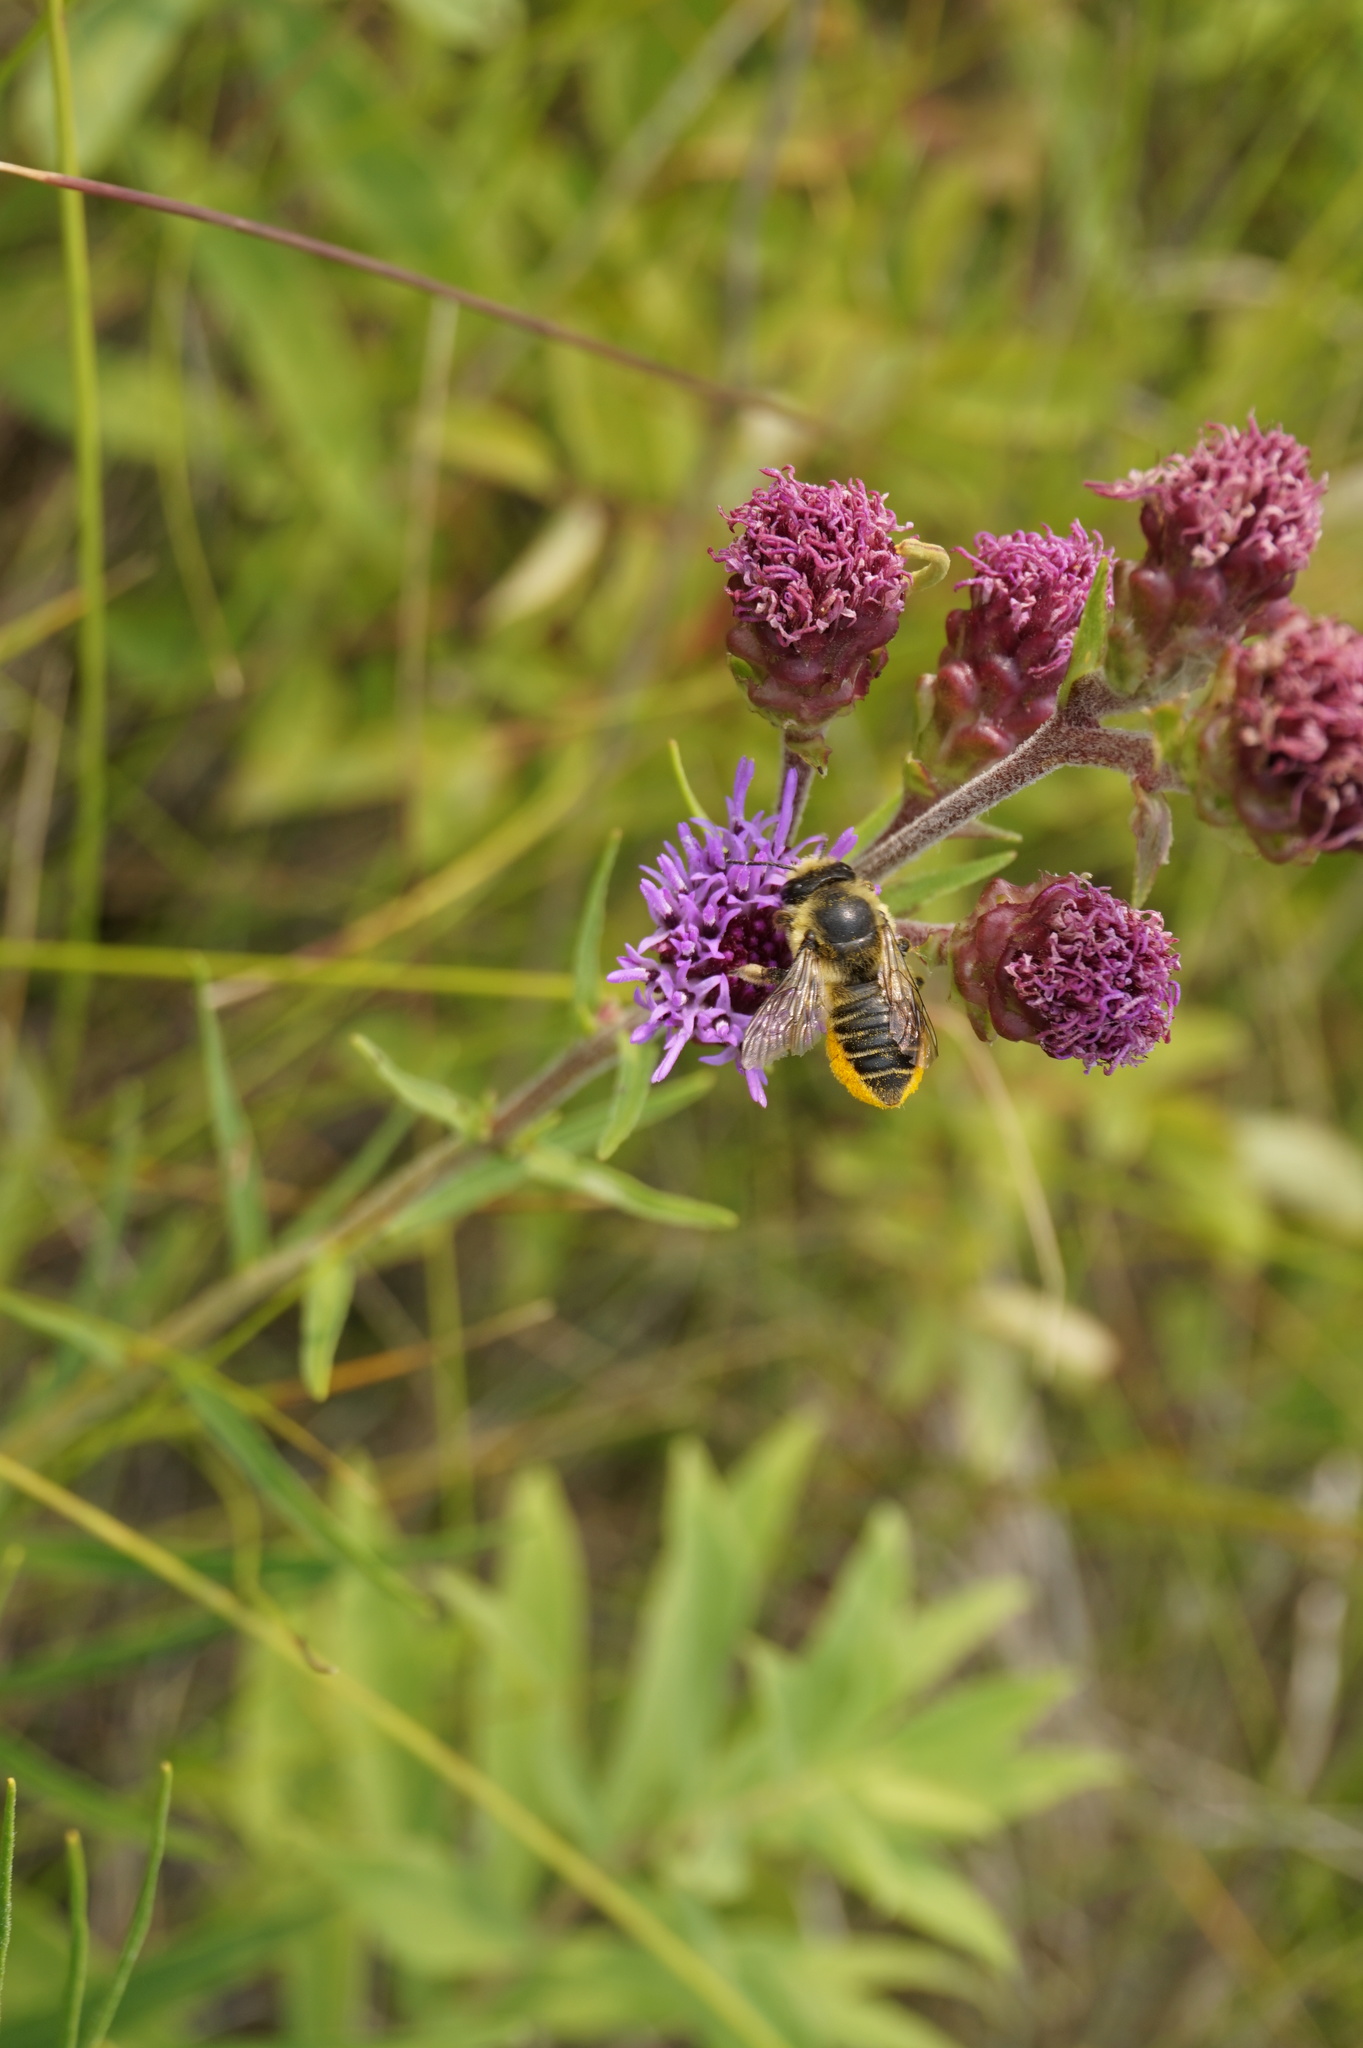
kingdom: Animalia
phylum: Arthropoda
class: Insecta
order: Hymenoptera
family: Megachilidae
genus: Megachile
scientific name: Megachile latimanus
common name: Leafcutting bee
